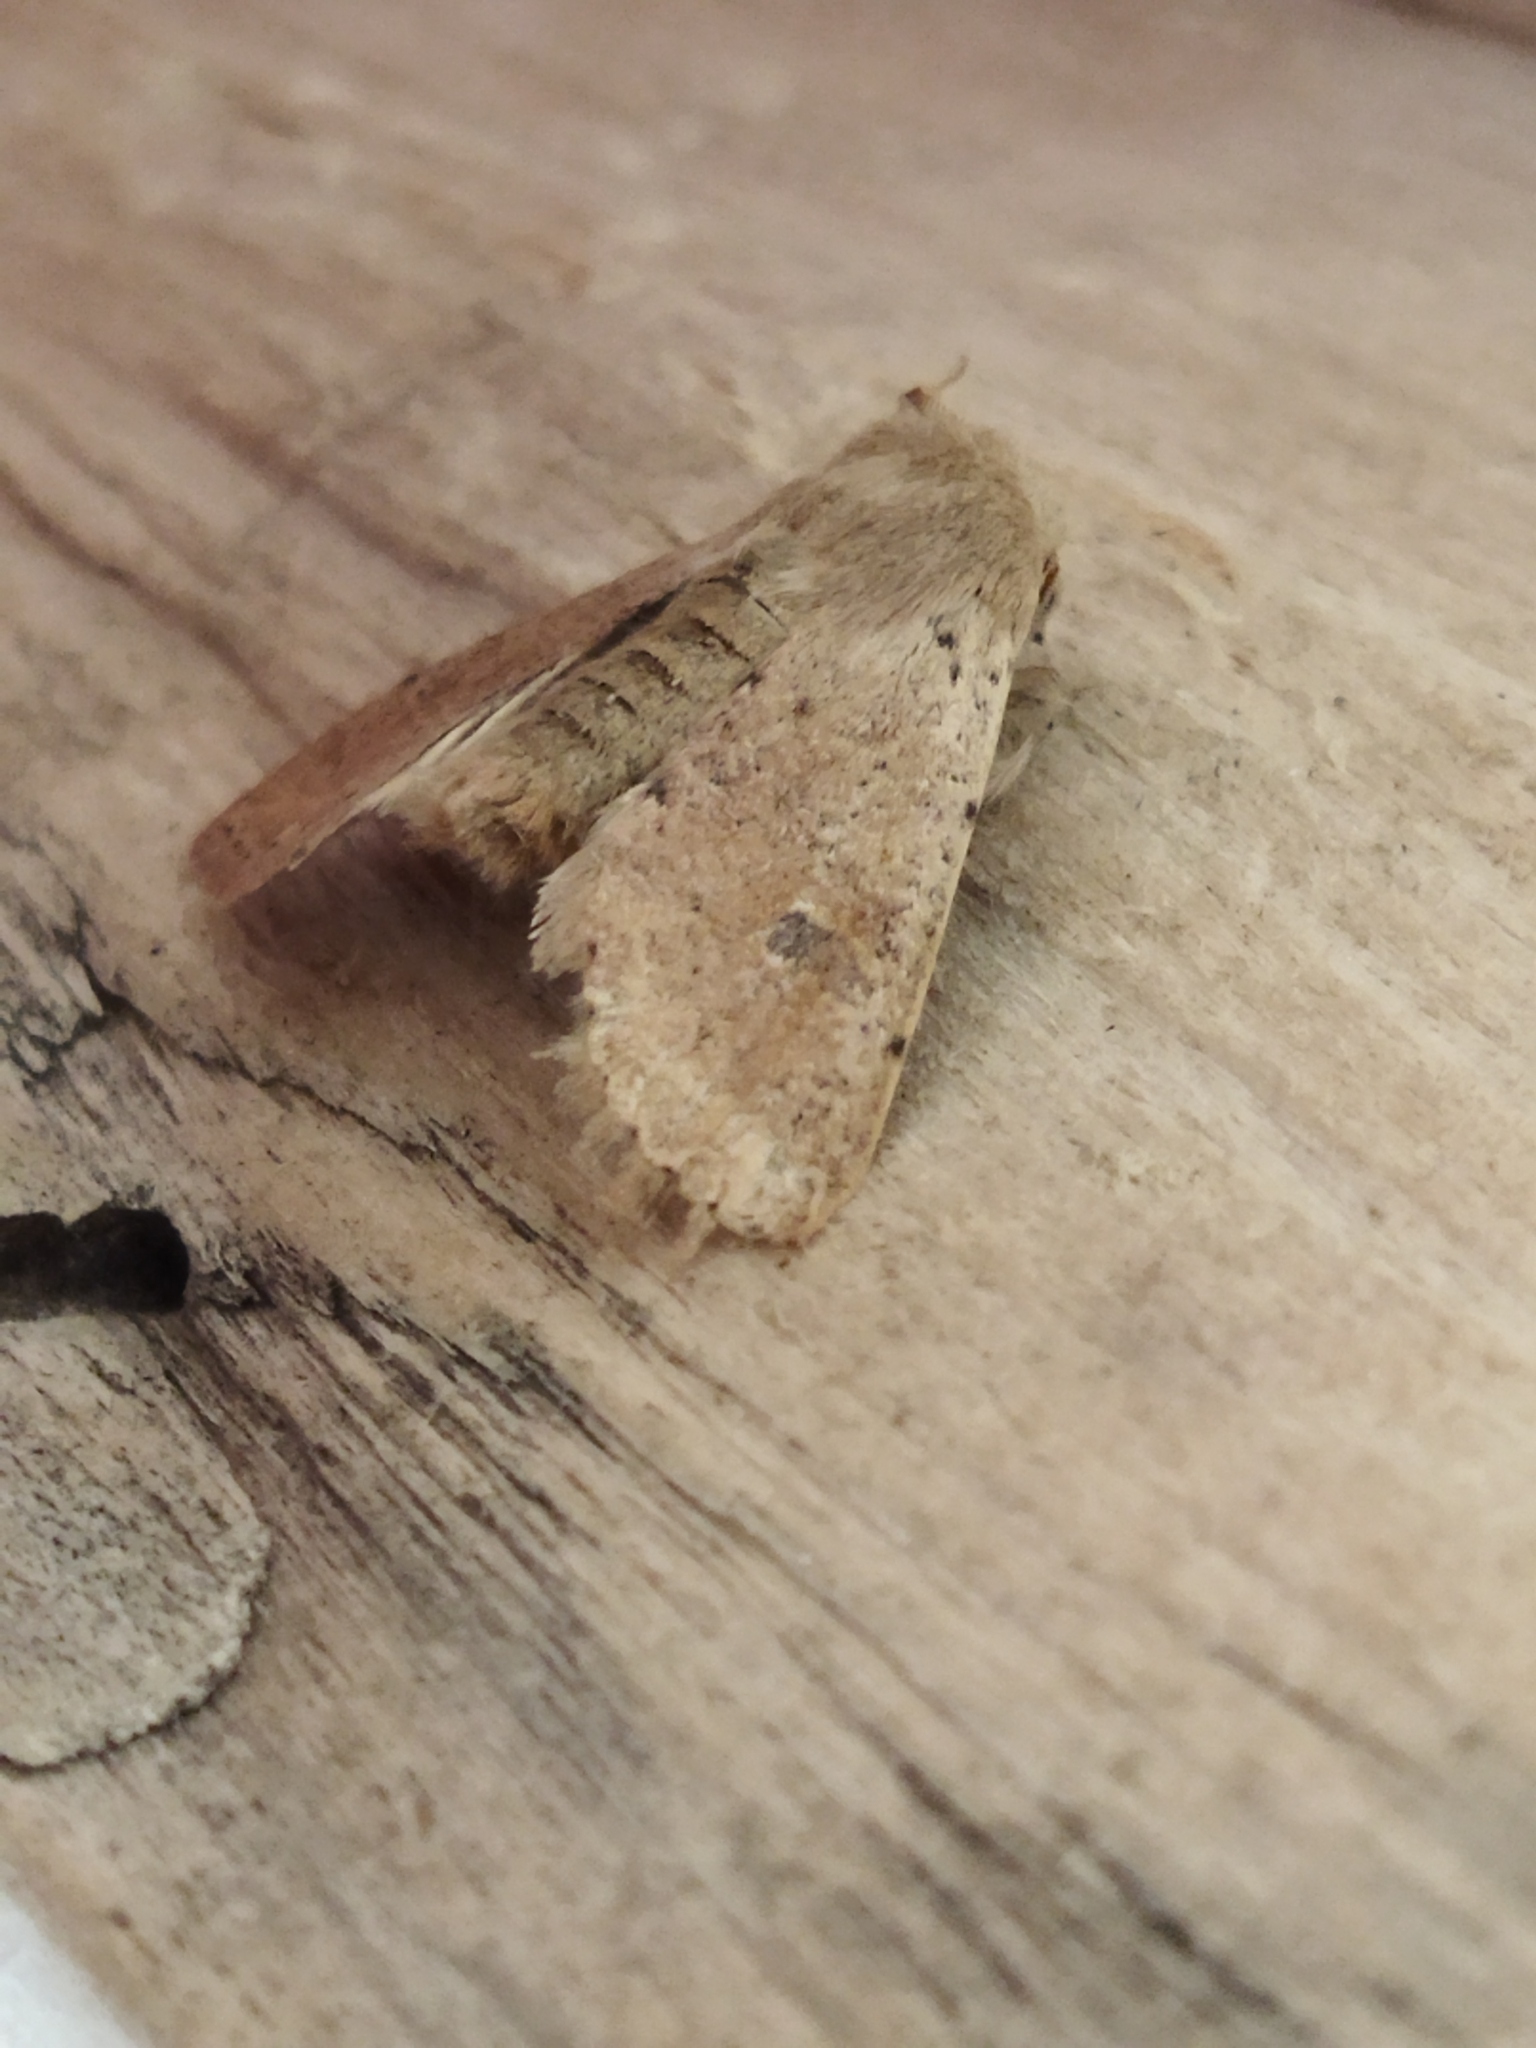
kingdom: Animalia
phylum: Arthropoda
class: Insecta
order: Lepidoptera
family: Noctuidae
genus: Orthosia
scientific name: Orthosia cruda
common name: Small quaker
